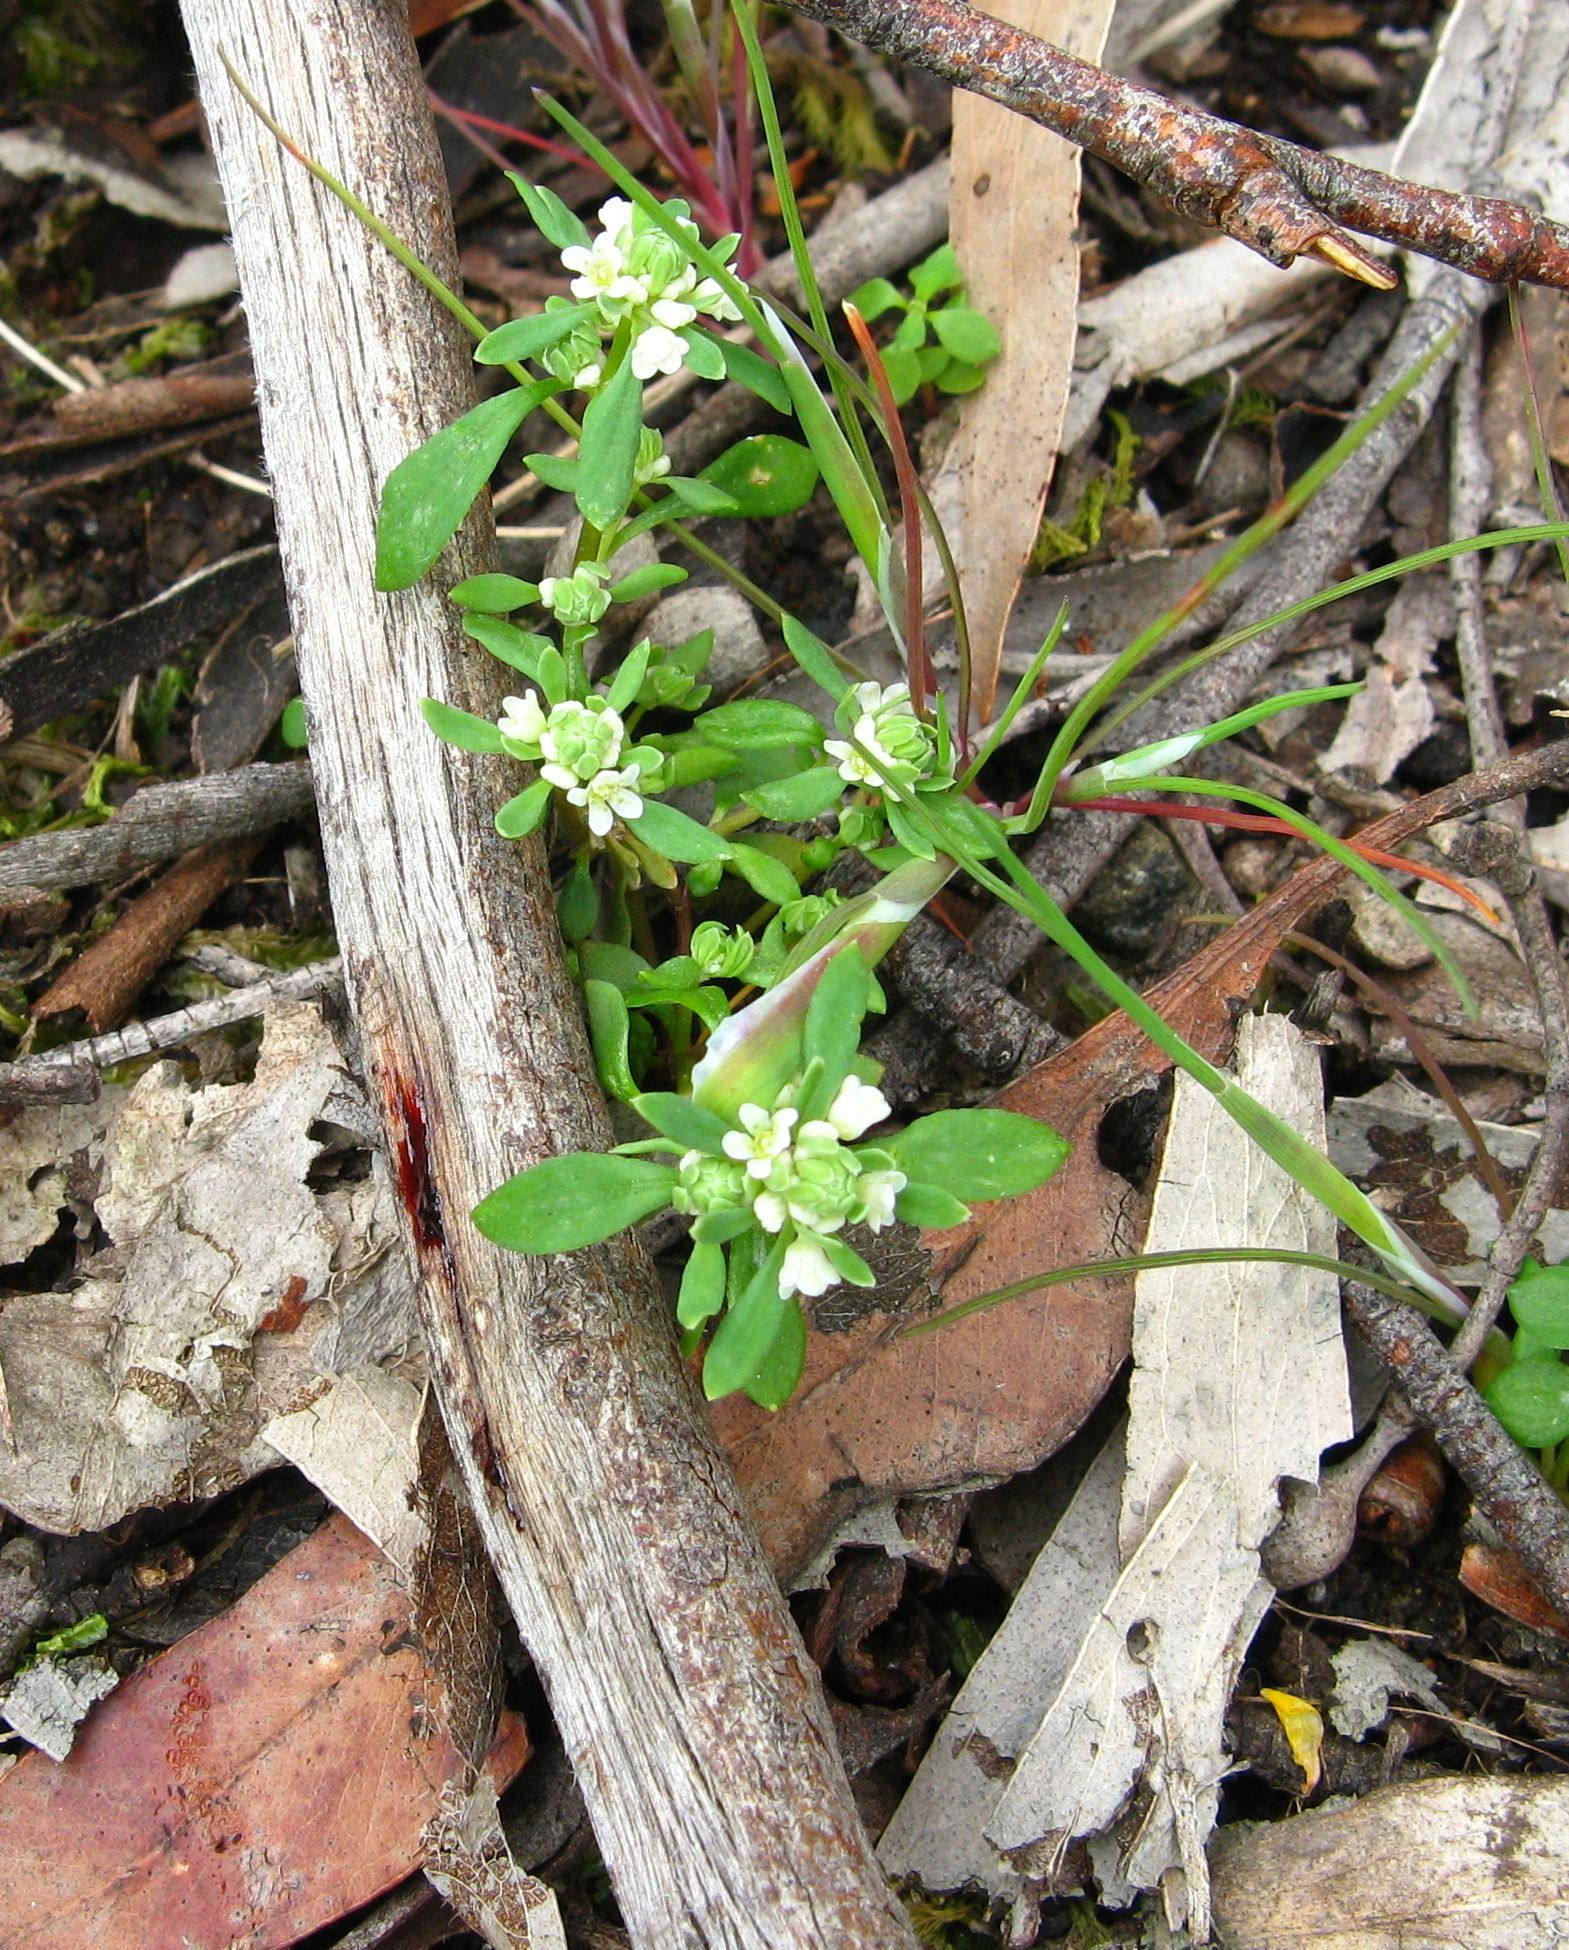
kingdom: Plantae
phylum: Tracheophyta
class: Magnoliopsida
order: Malpighiales
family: Phyllanthaceae
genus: Poranthera
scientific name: Poranthera microphylla
